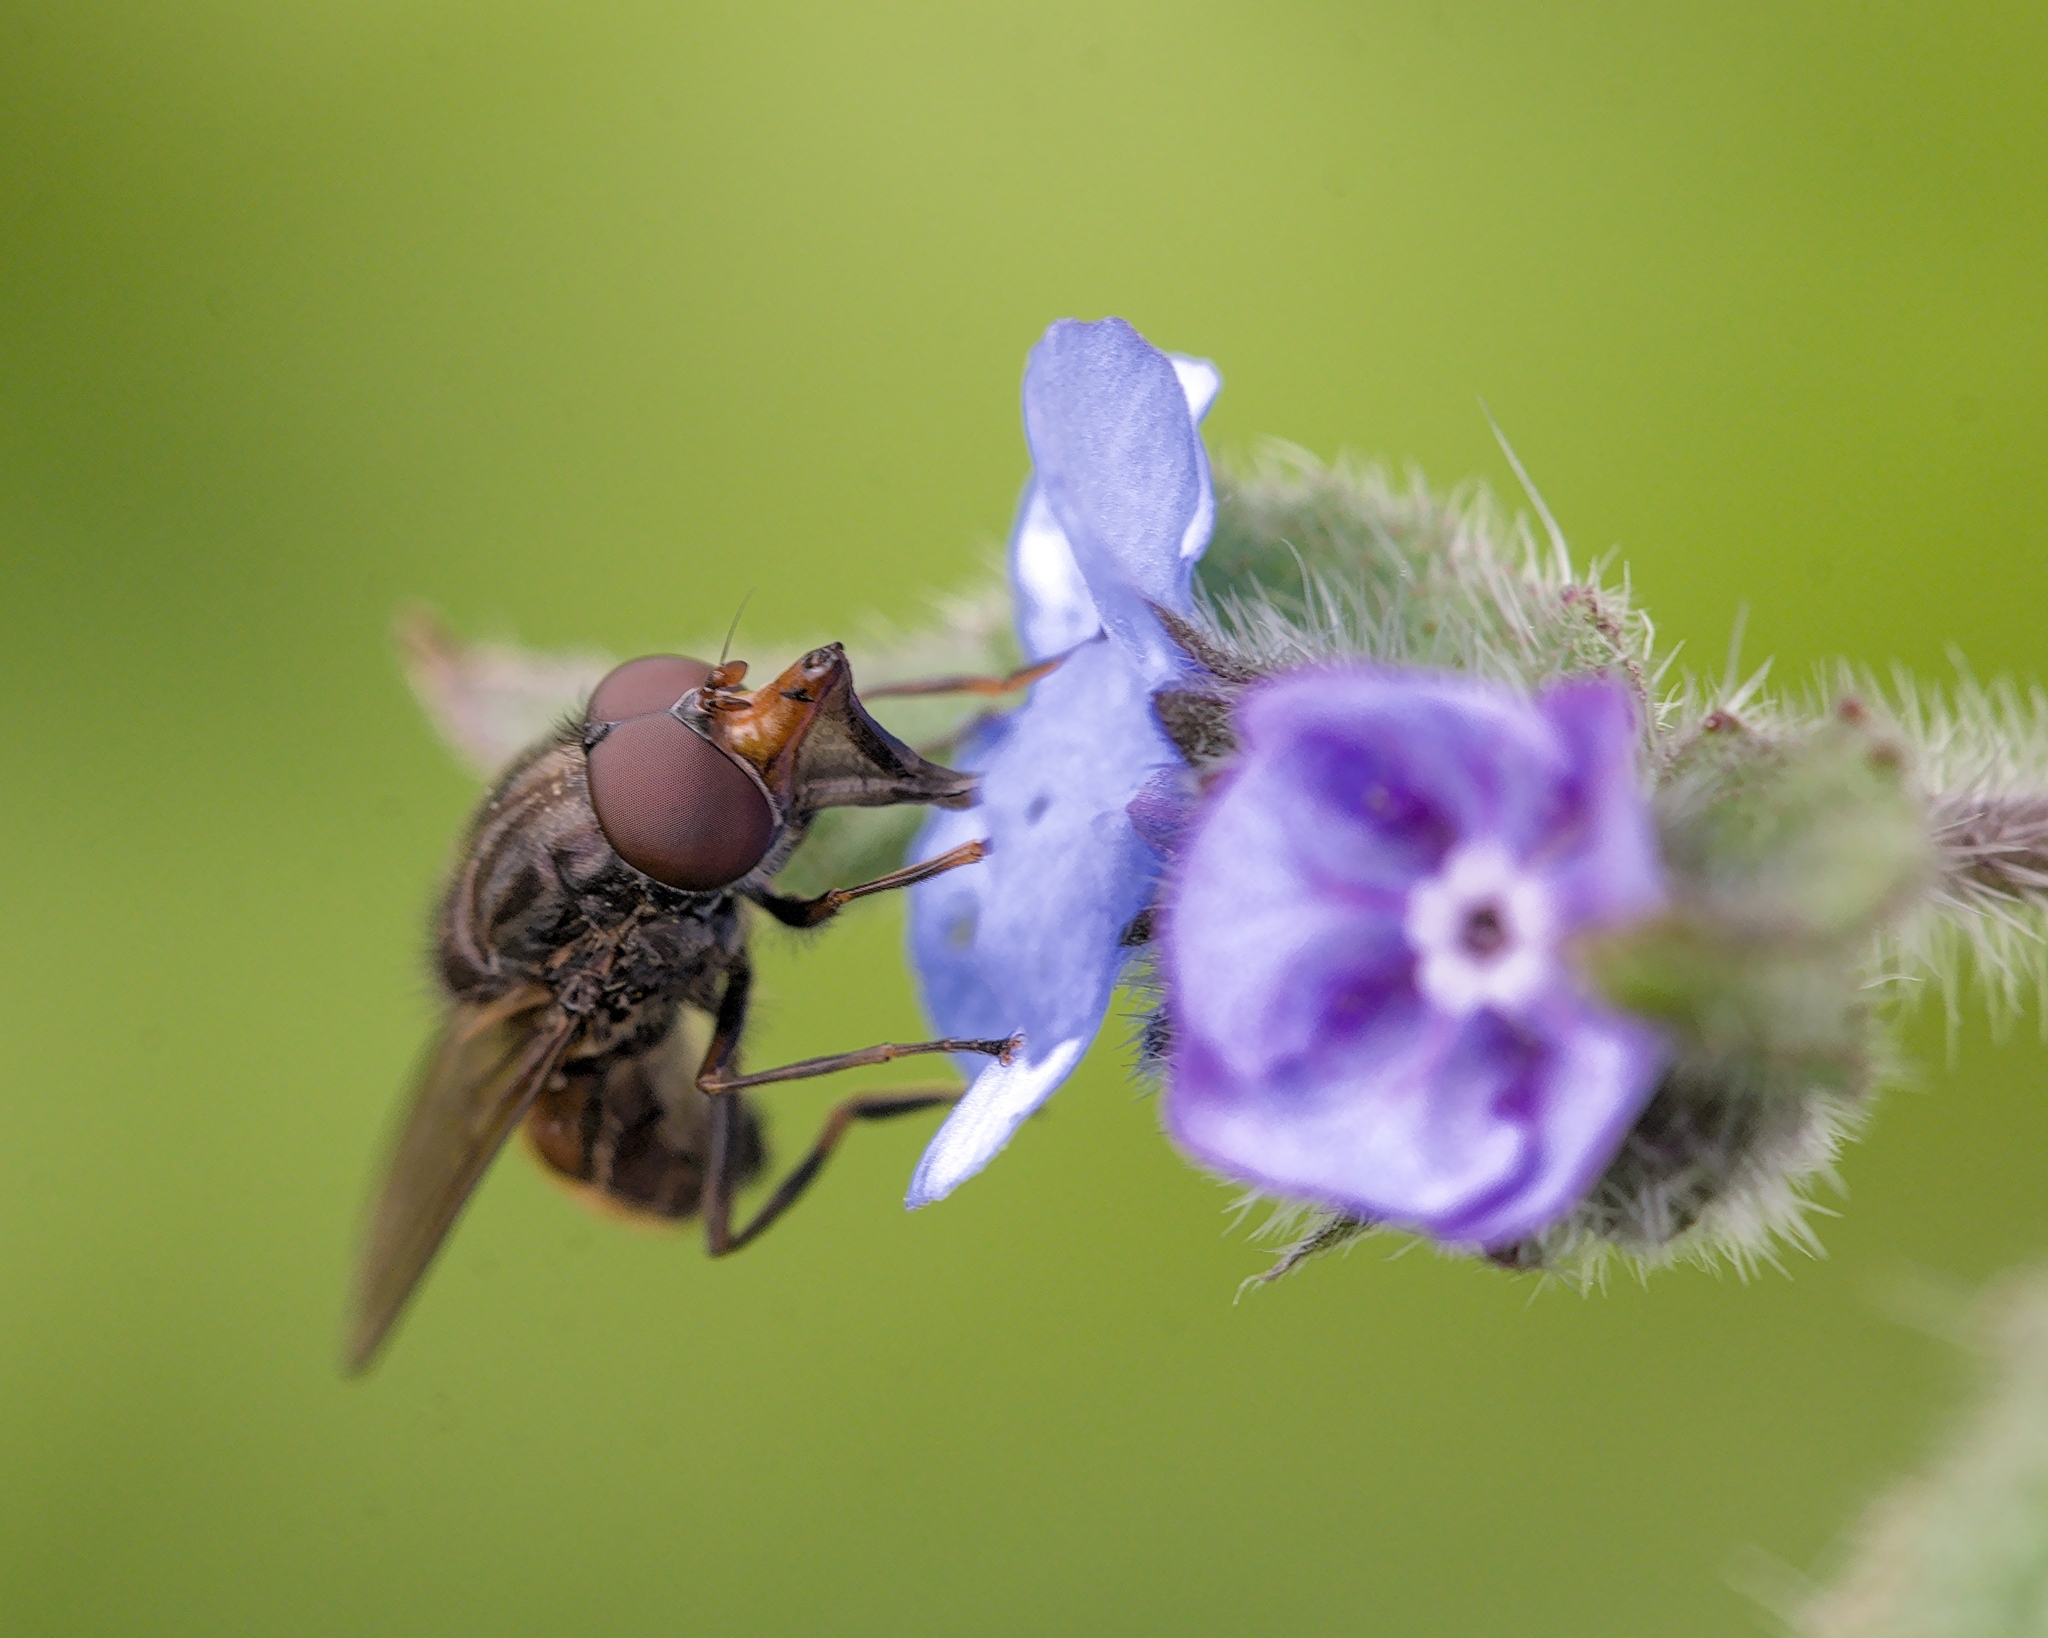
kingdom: Animalia
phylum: Arthropoda
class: Insecta
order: Diptera
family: Syrphidae
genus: Rhingia
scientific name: Rhingia campestris
